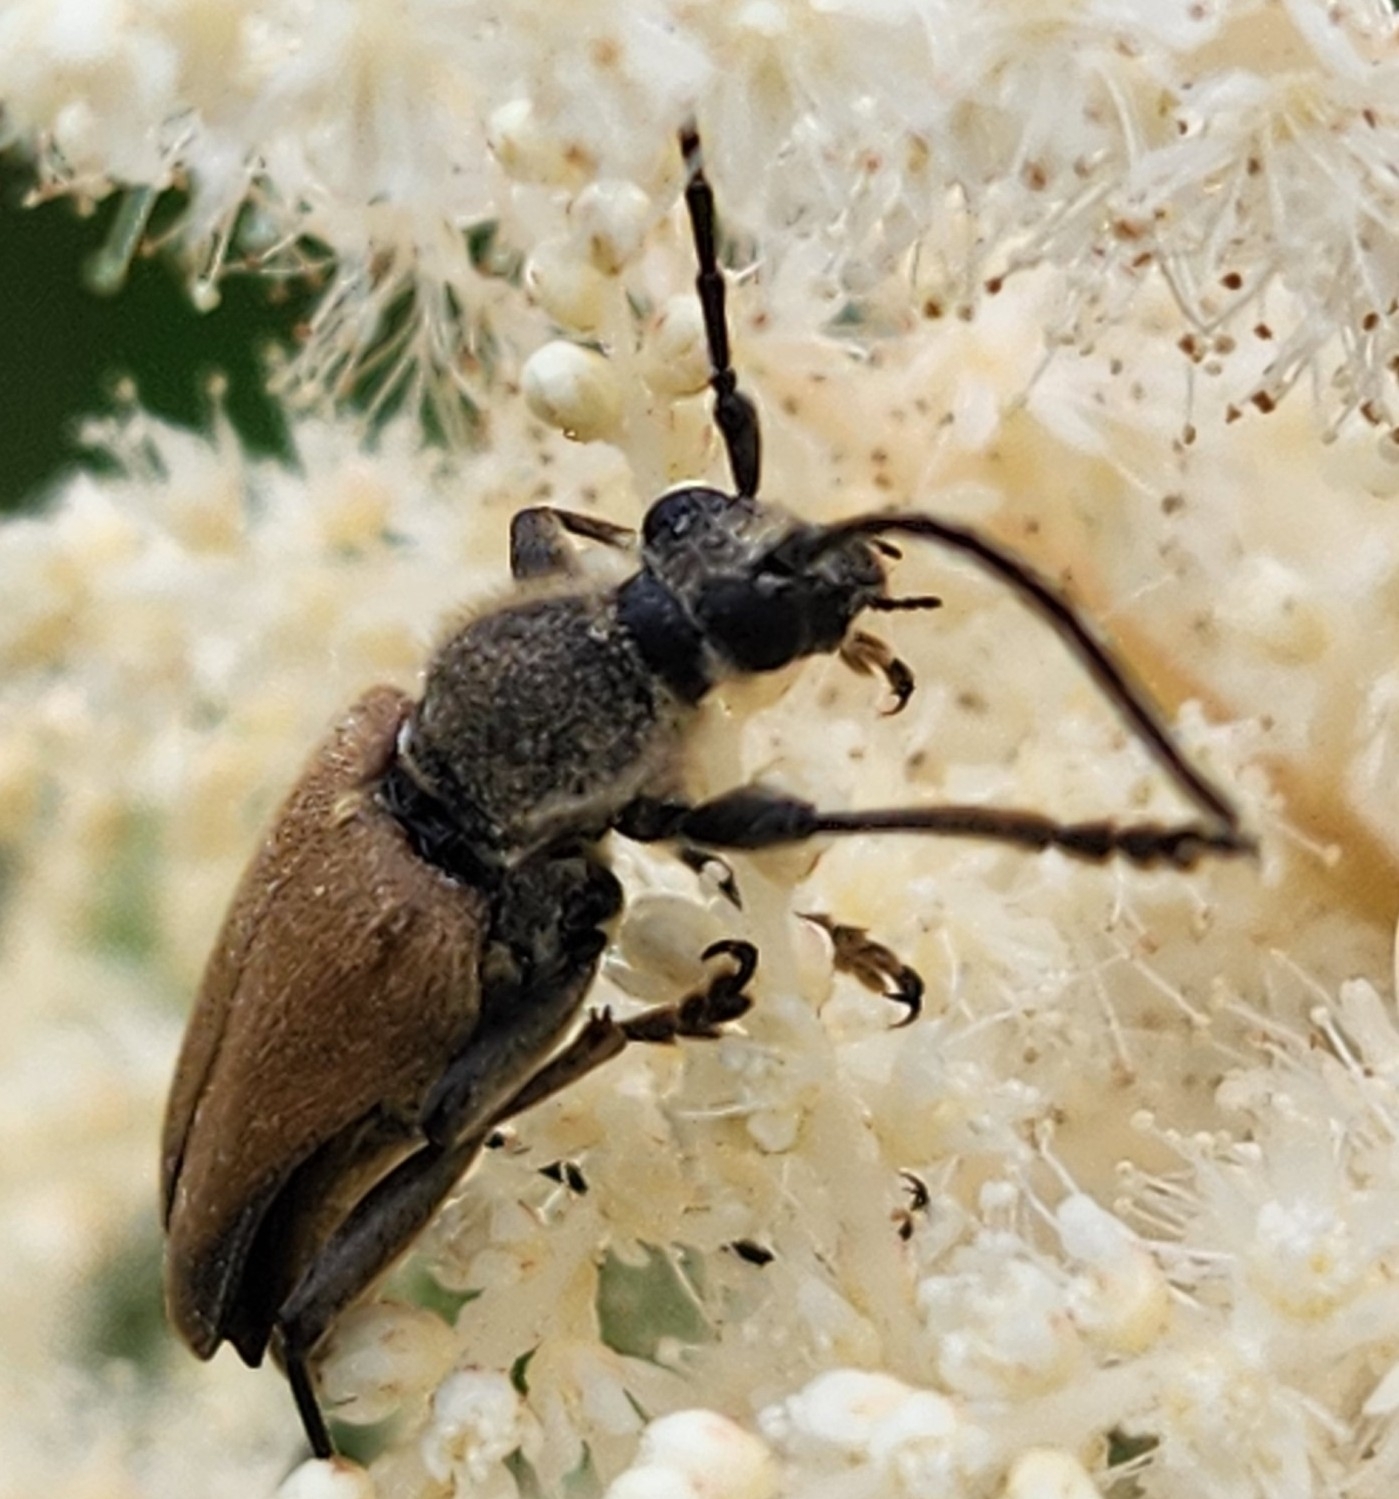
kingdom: Animalia
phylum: Arthropoda
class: Insecta
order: Coleoptera
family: Cerambycidae
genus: Trigonarthris
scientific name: Trigonarthris proxima
